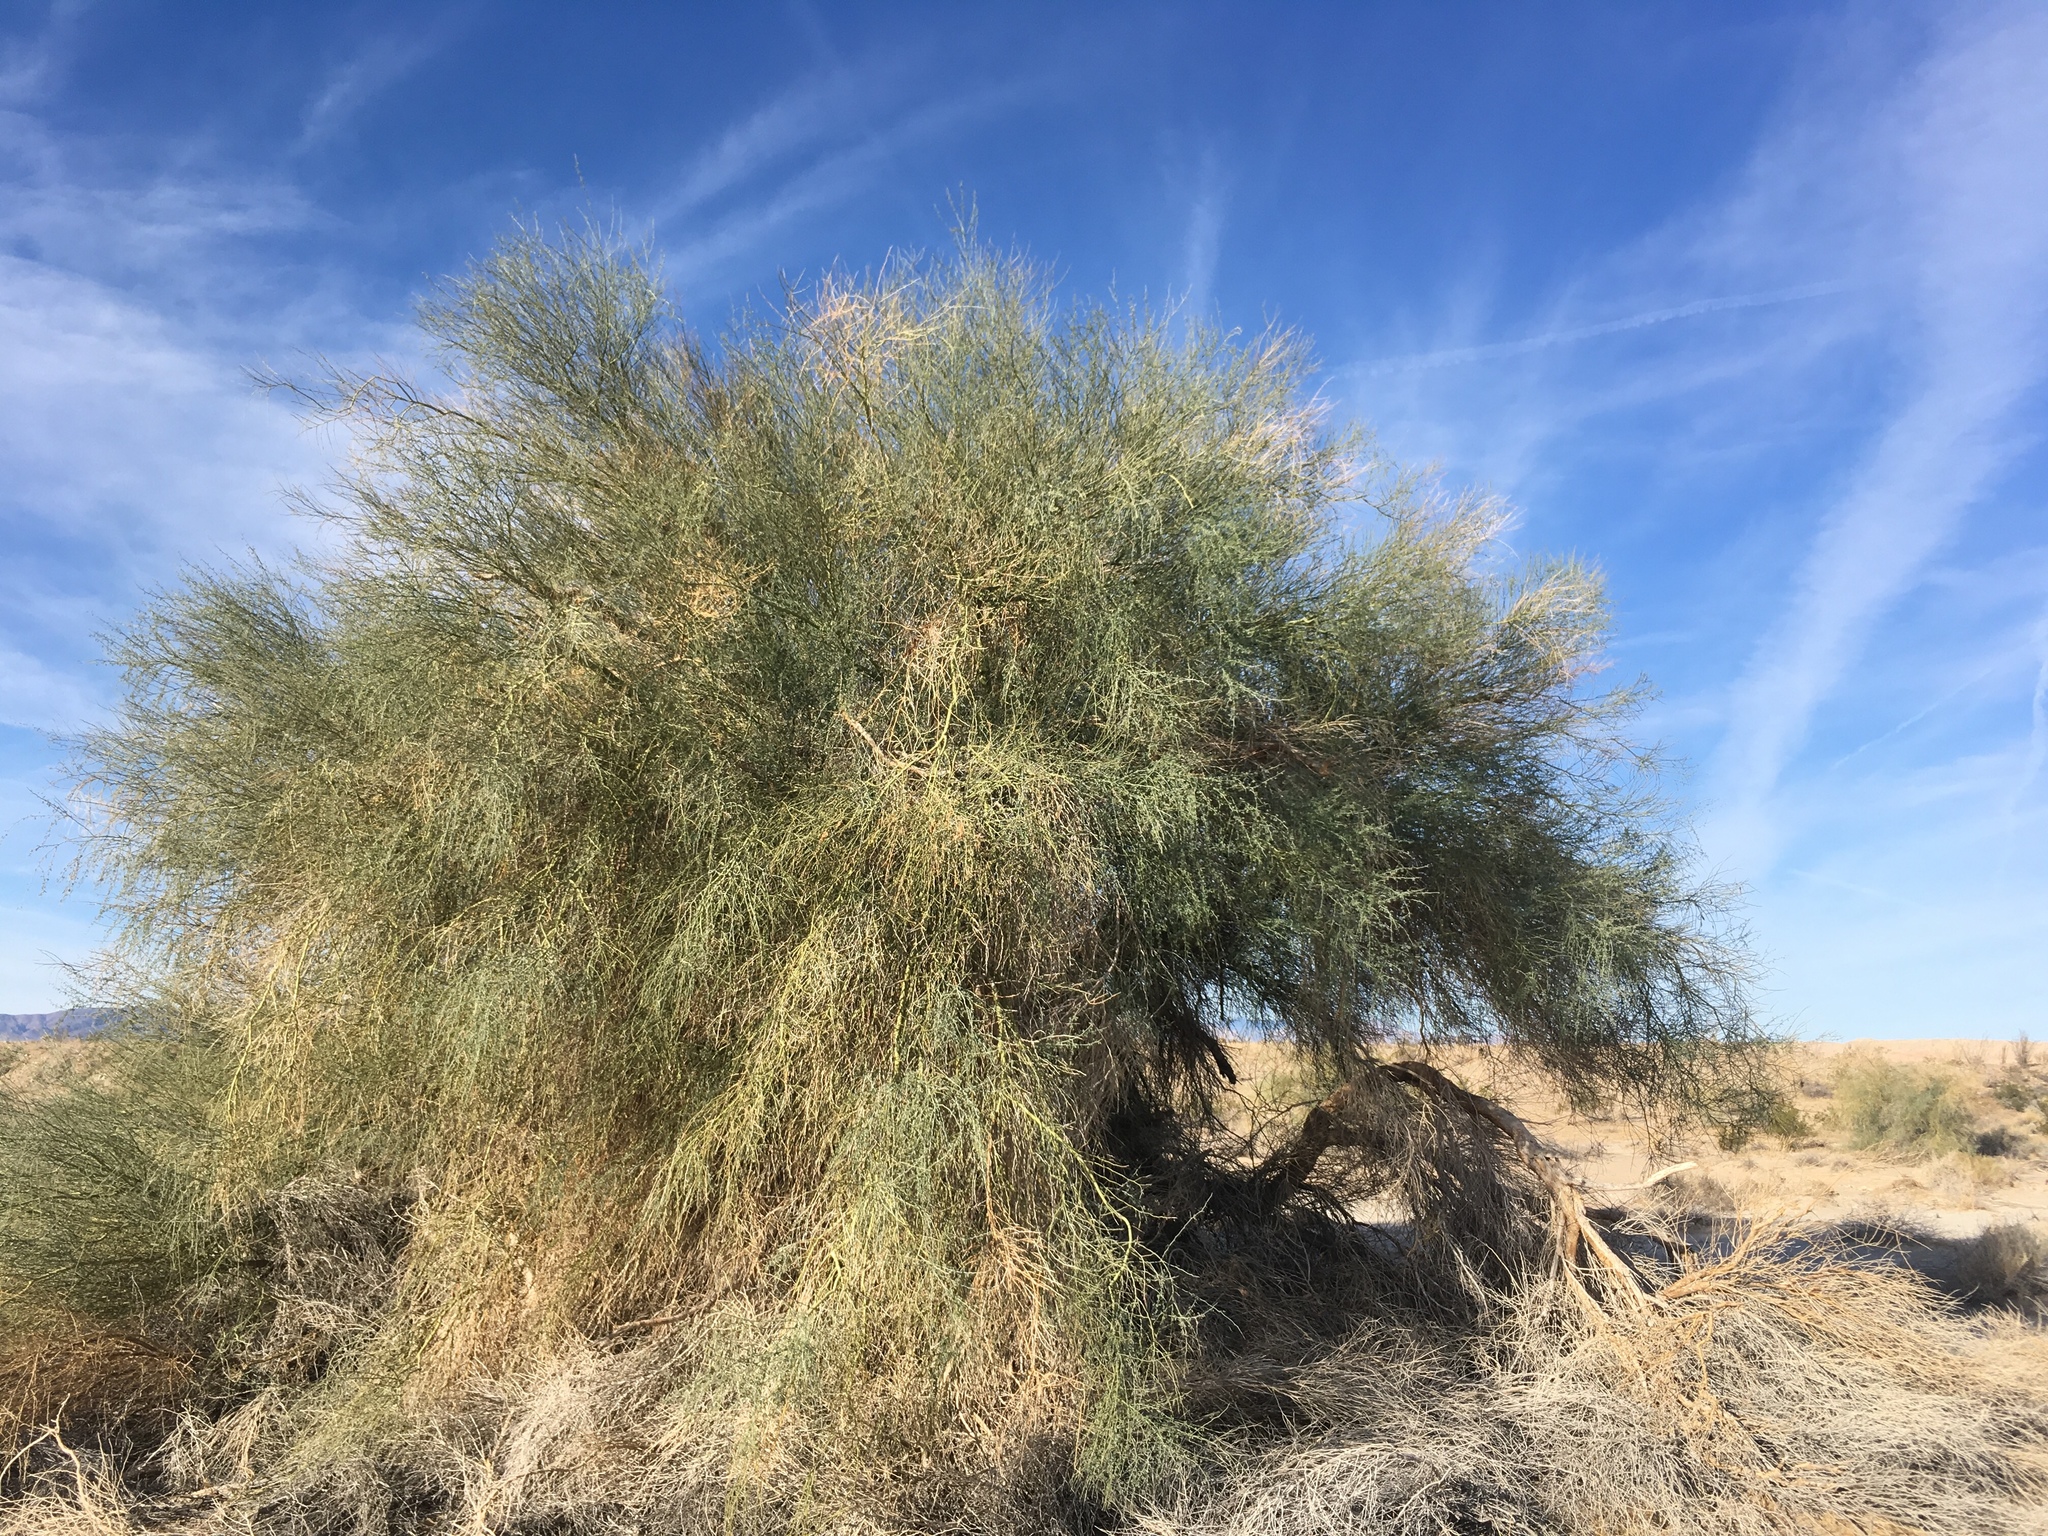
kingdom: Plantae
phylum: Tracheophyta
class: Magnoliopsida
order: Fabales
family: Fabaceae
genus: Parkinsonia
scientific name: Parkinsonia florida
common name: Blue paloverde
